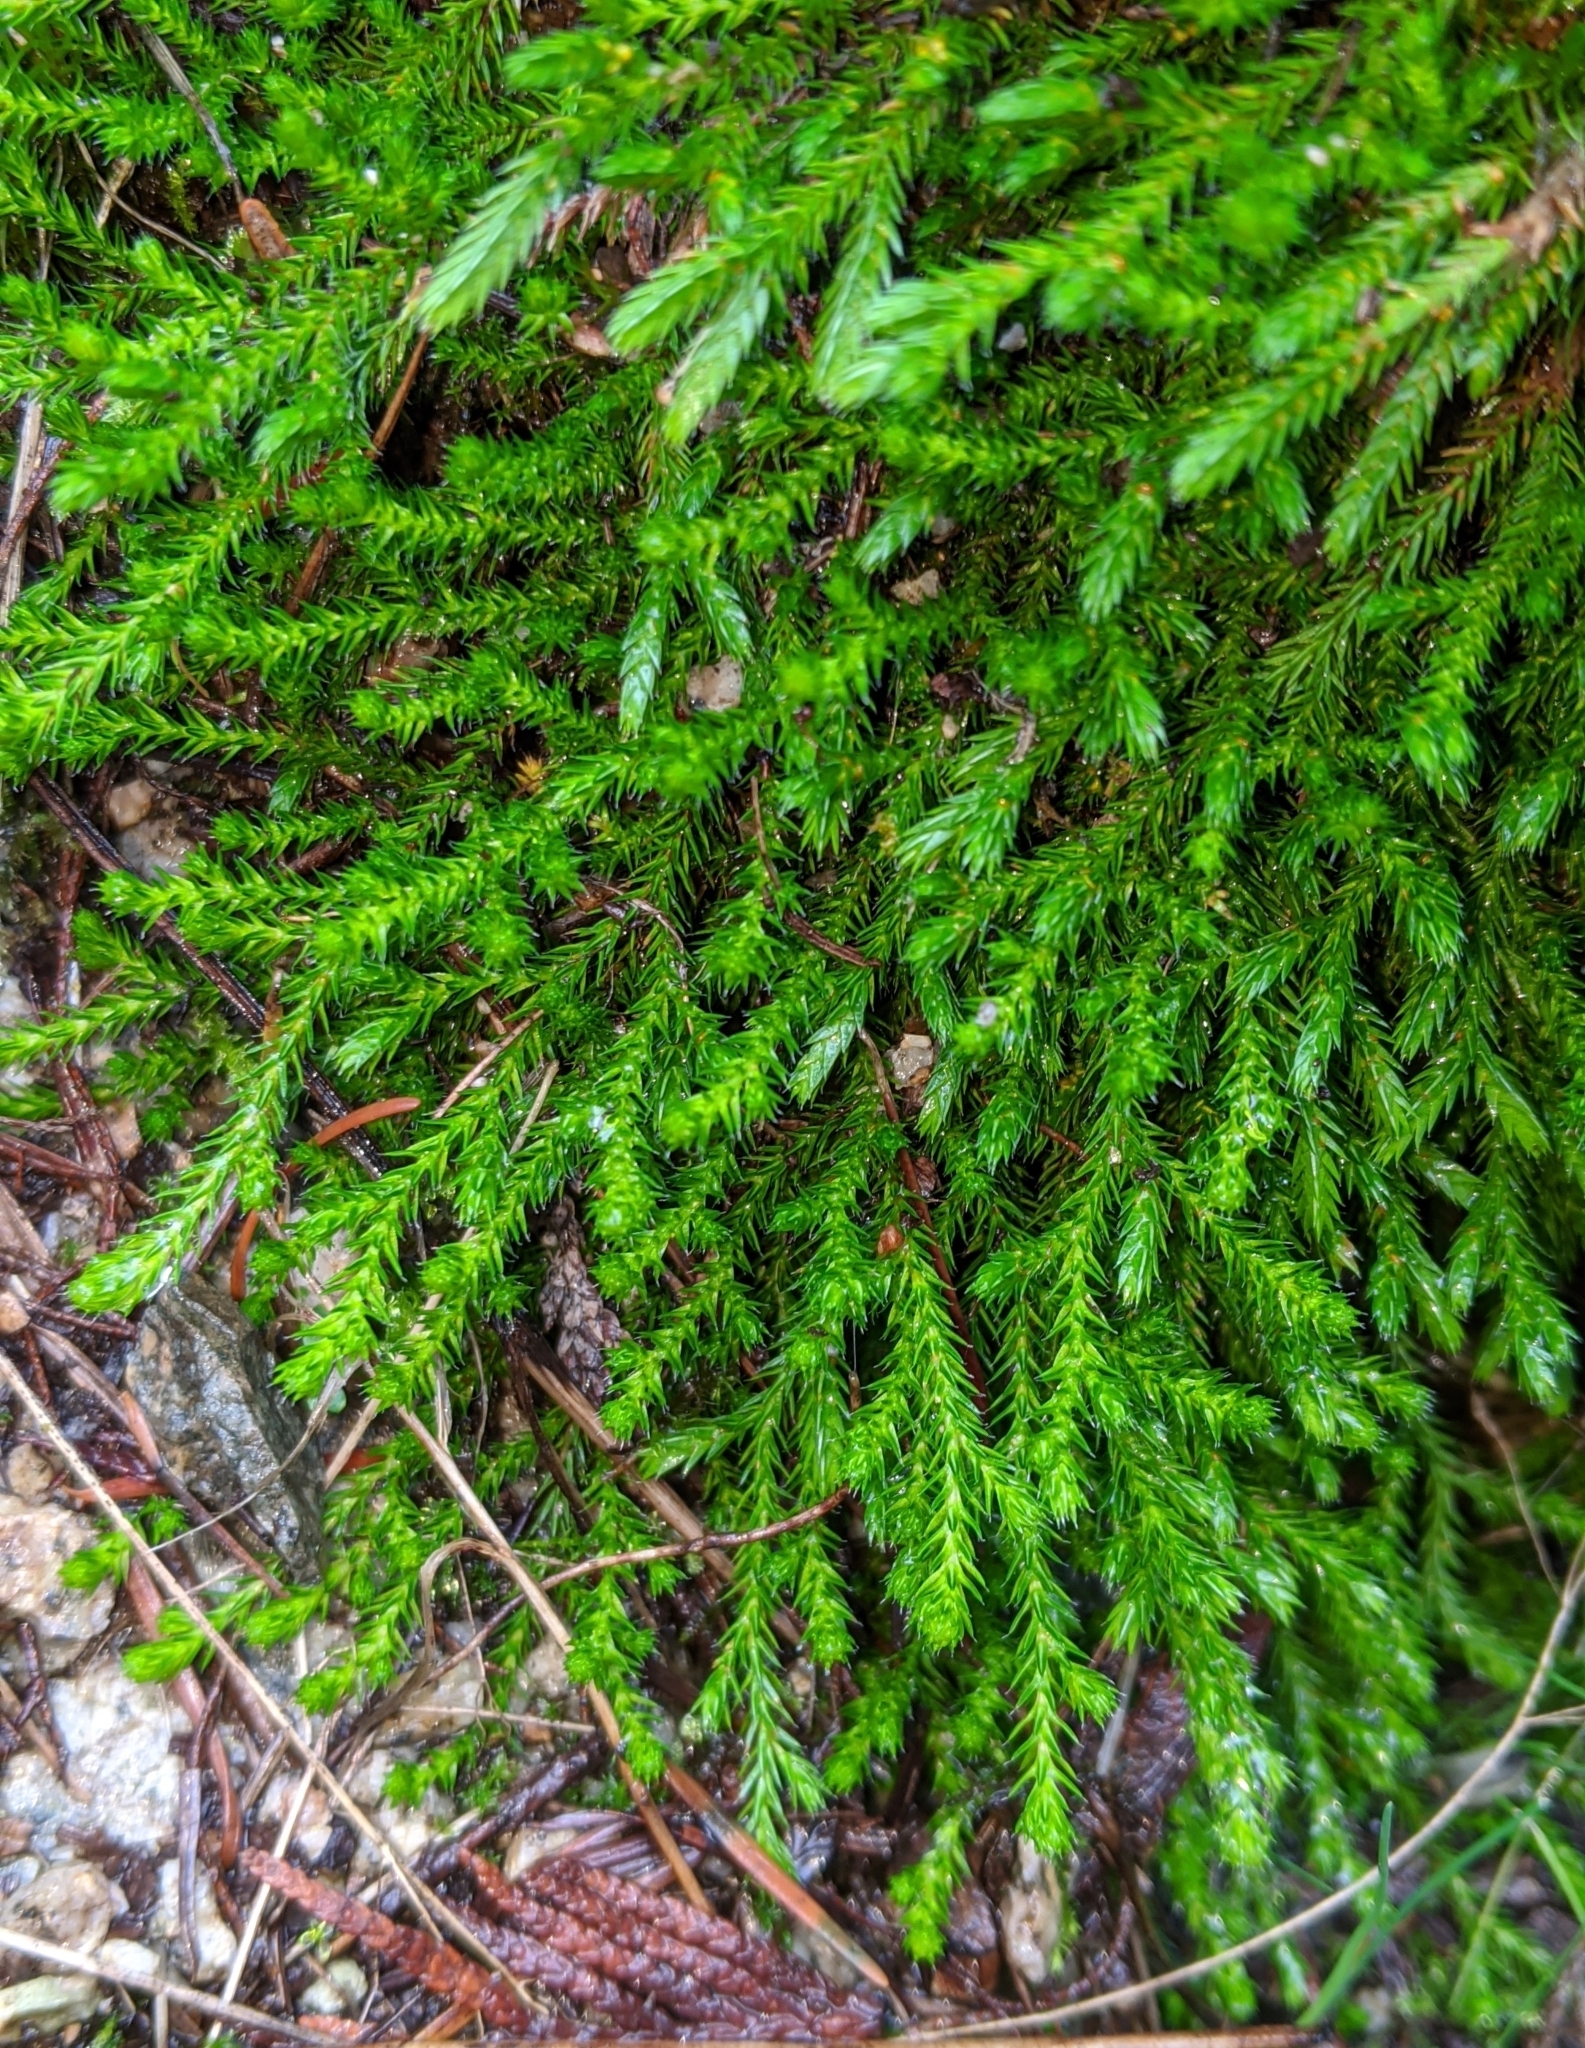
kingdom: Plantae
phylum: Tracheophyta
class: Lycopodiopsida
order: Selaginellales
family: Selaginellaceae
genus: Selaginella
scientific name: Selaginella wallacei
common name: Wallace's selaginella
